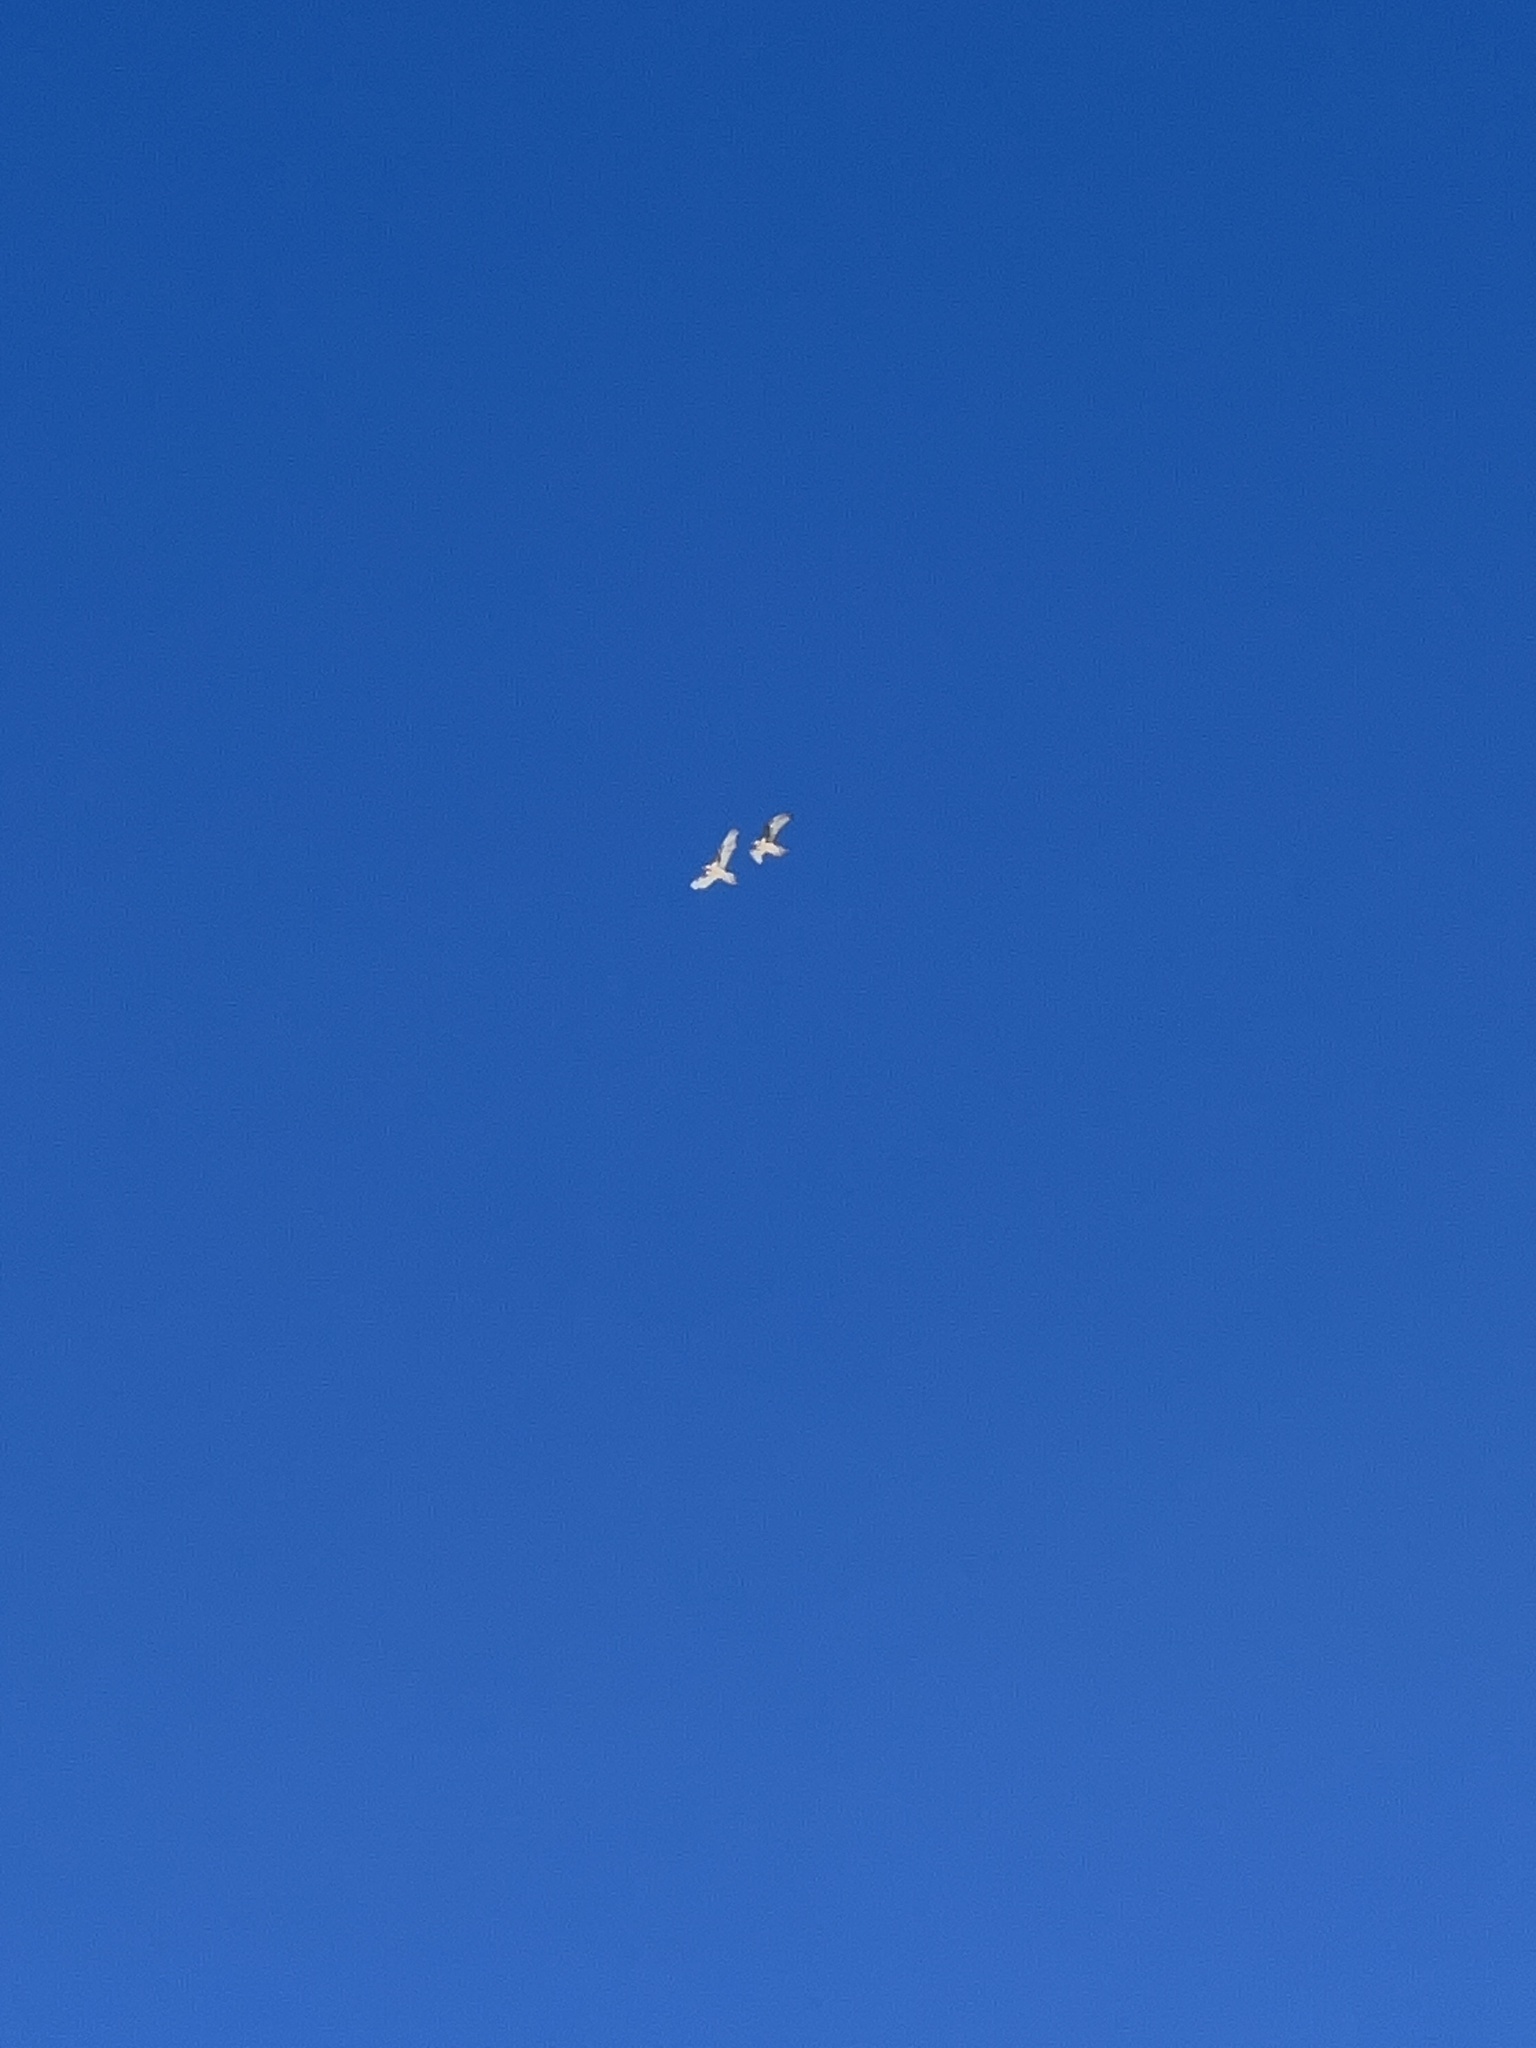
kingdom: Animalia
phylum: Chordata
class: Aves
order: Accipitriformes
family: Accipitridae
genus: Gypaetus
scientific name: Gypaetus barbatus
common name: Bearded vulture
